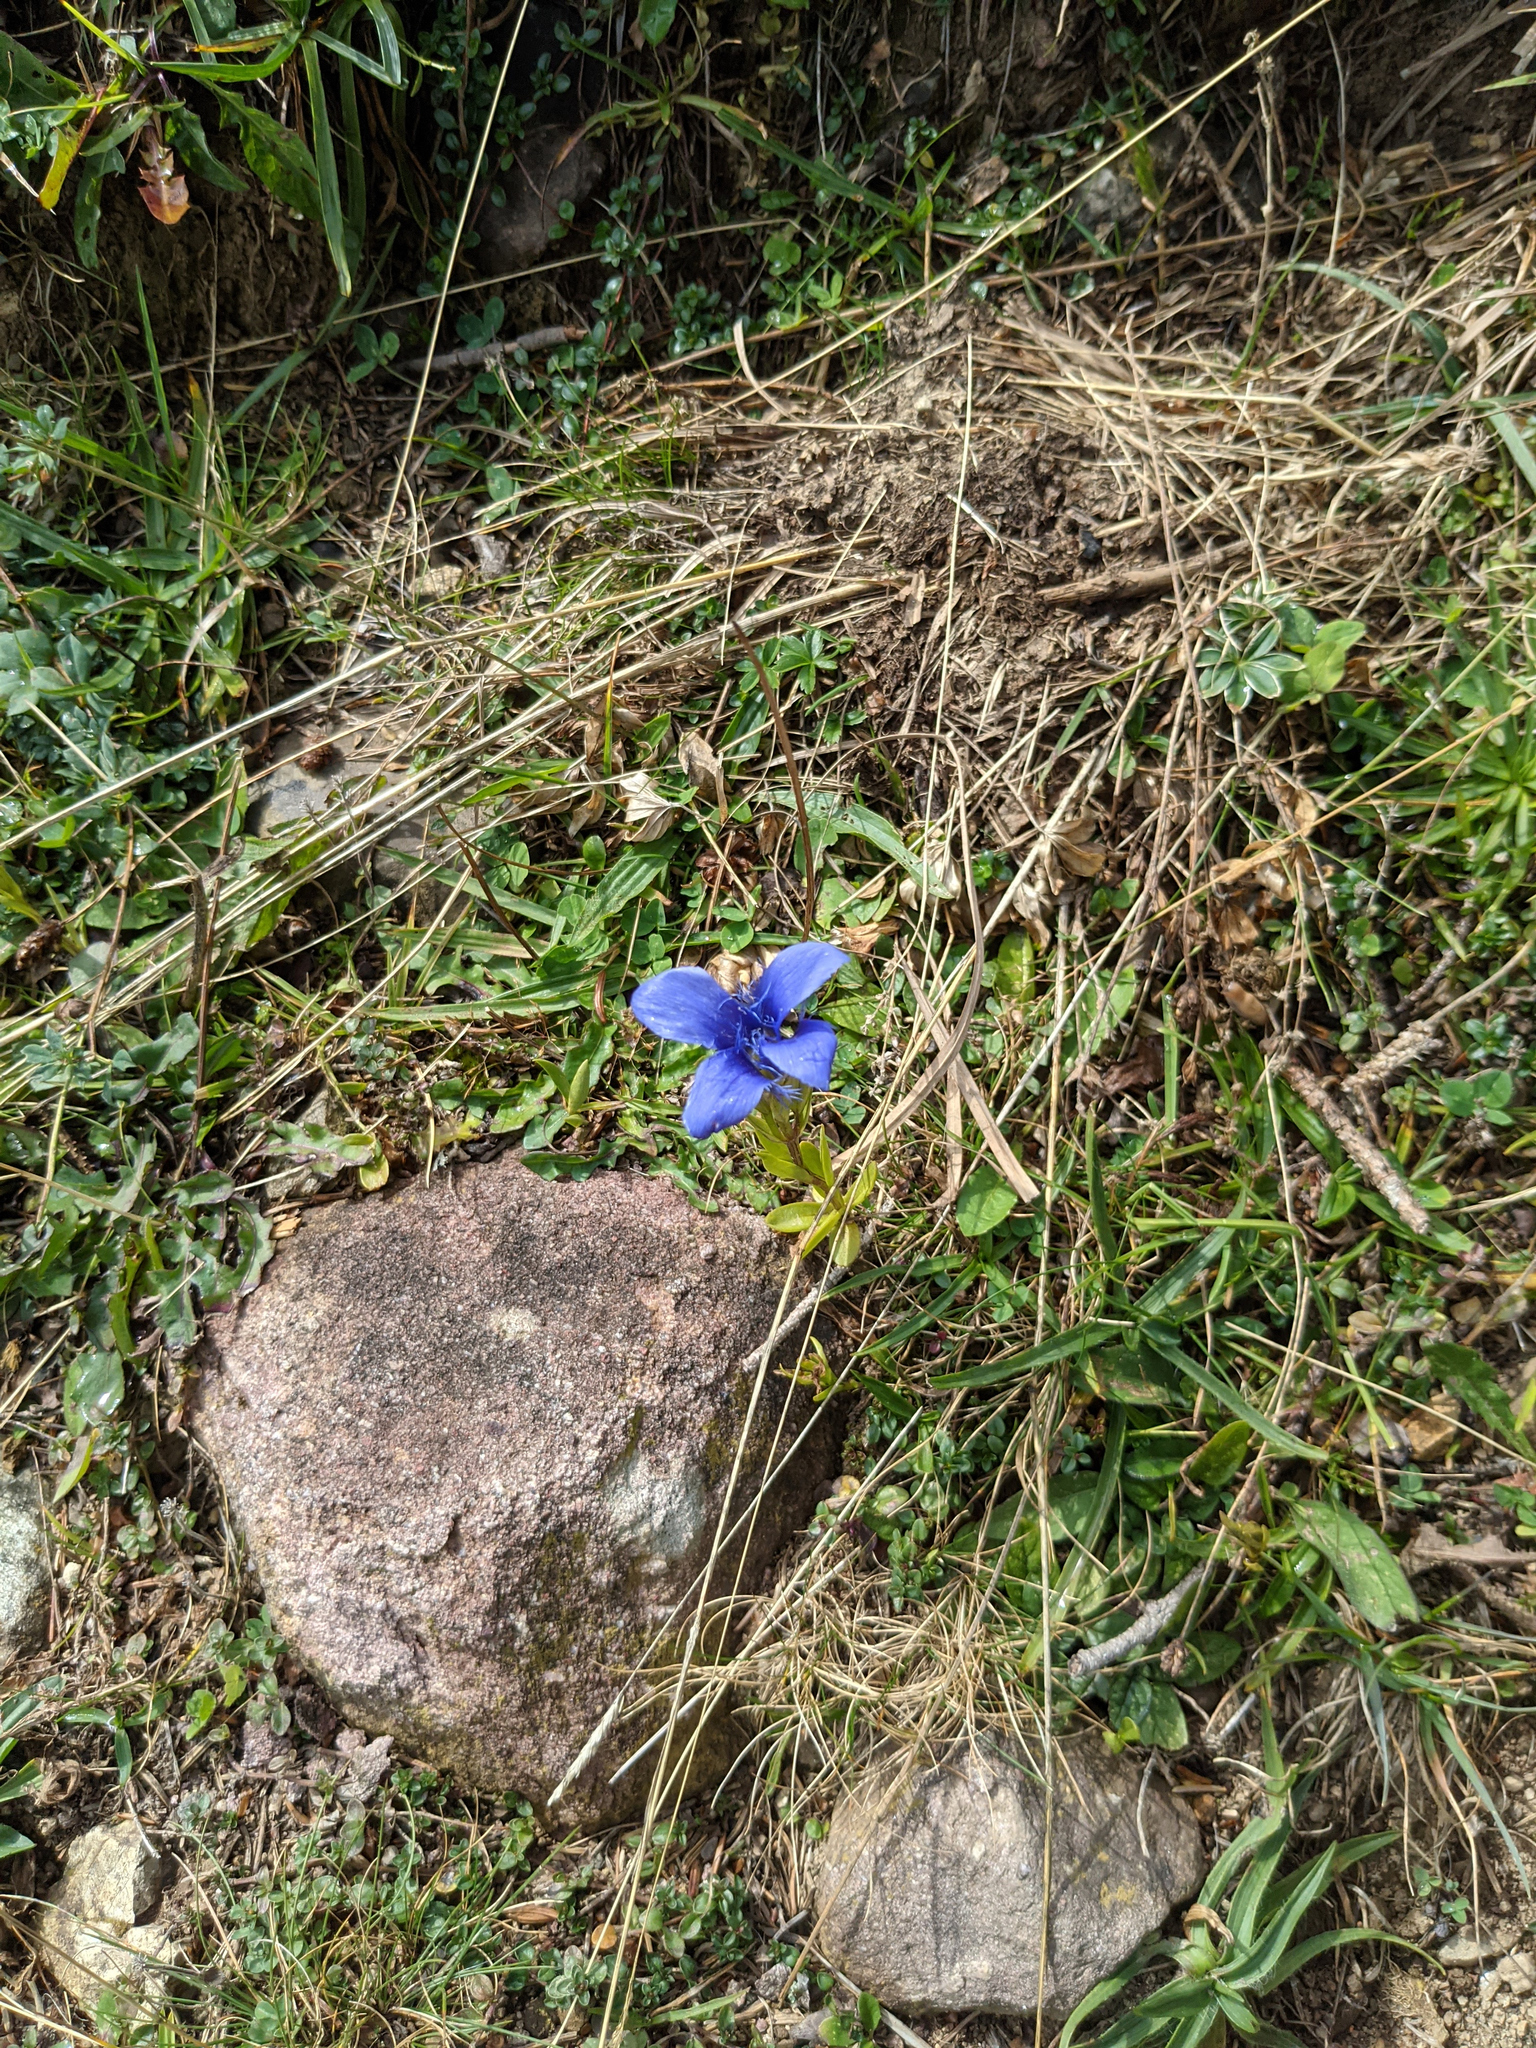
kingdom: Plantae
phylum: Tracheophyta
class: Magnoliopsida
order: Gentianales
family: Gentianaceae
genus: Gentianopsis
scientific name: Gentianopsis ciliata
